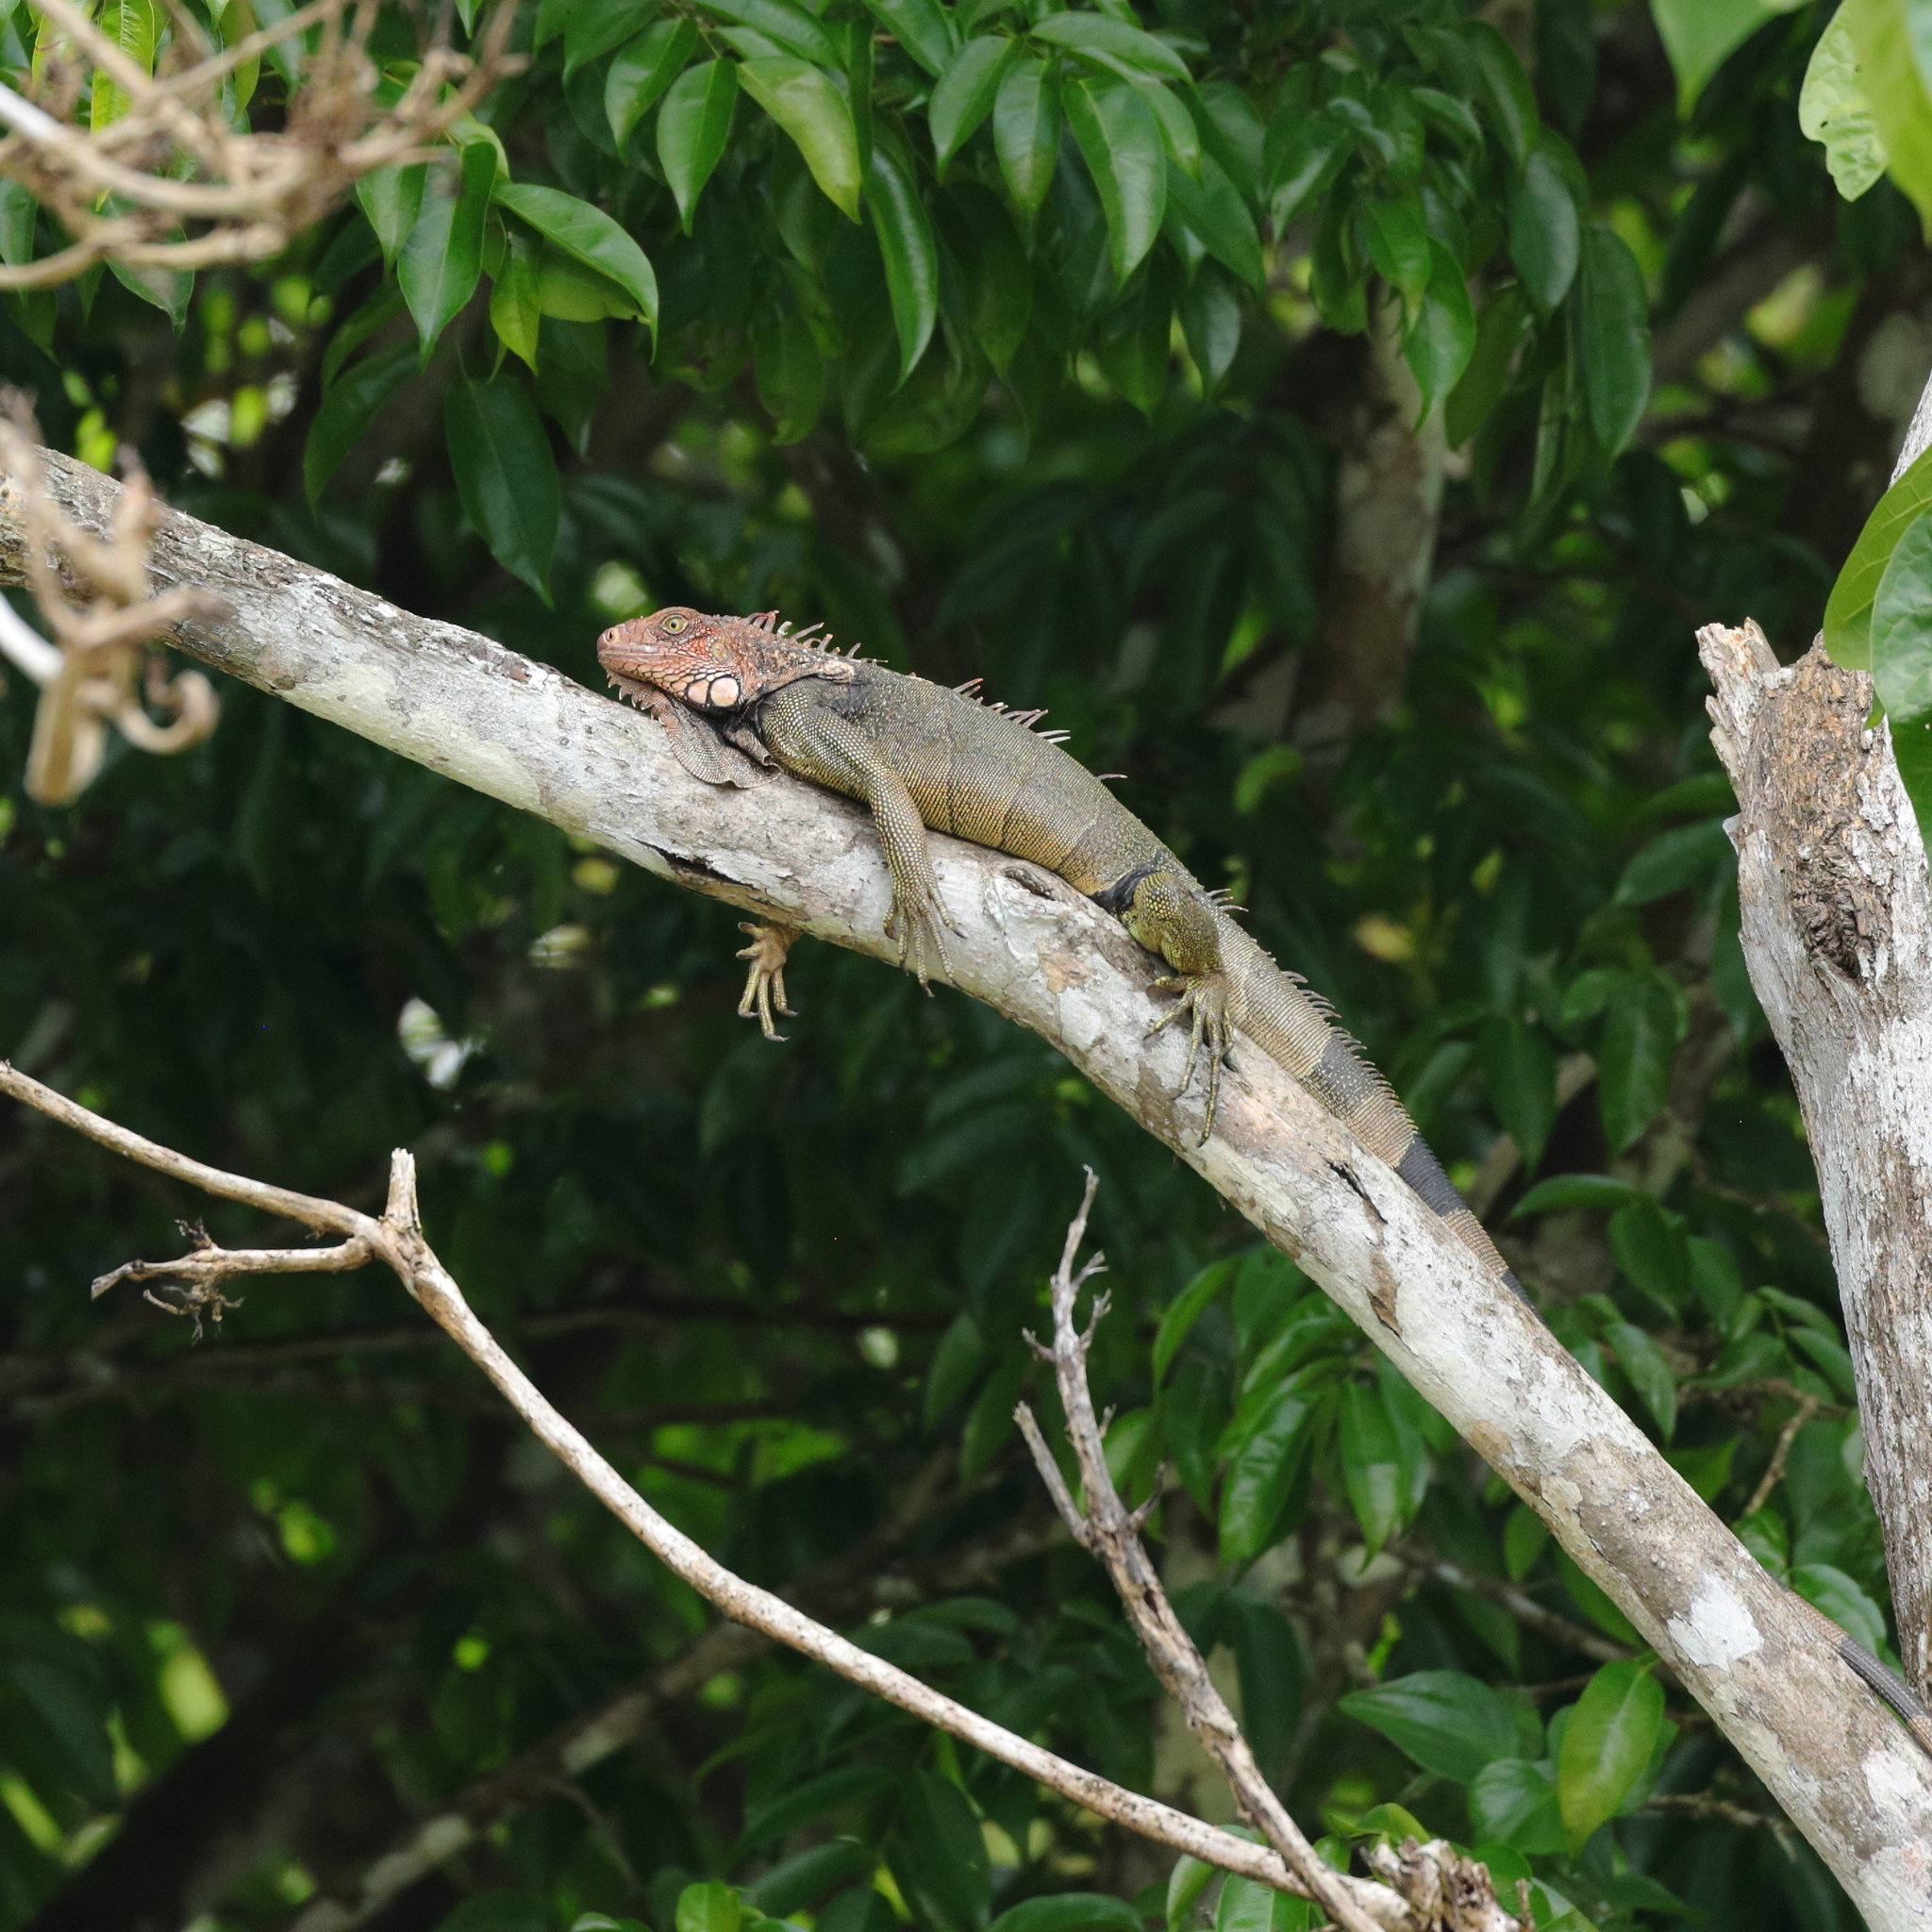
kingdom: Animalia
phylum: Chordata
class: Squamata
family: Iguanidae
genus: Iguana
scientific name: Iguana iguana
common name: Green iguana
